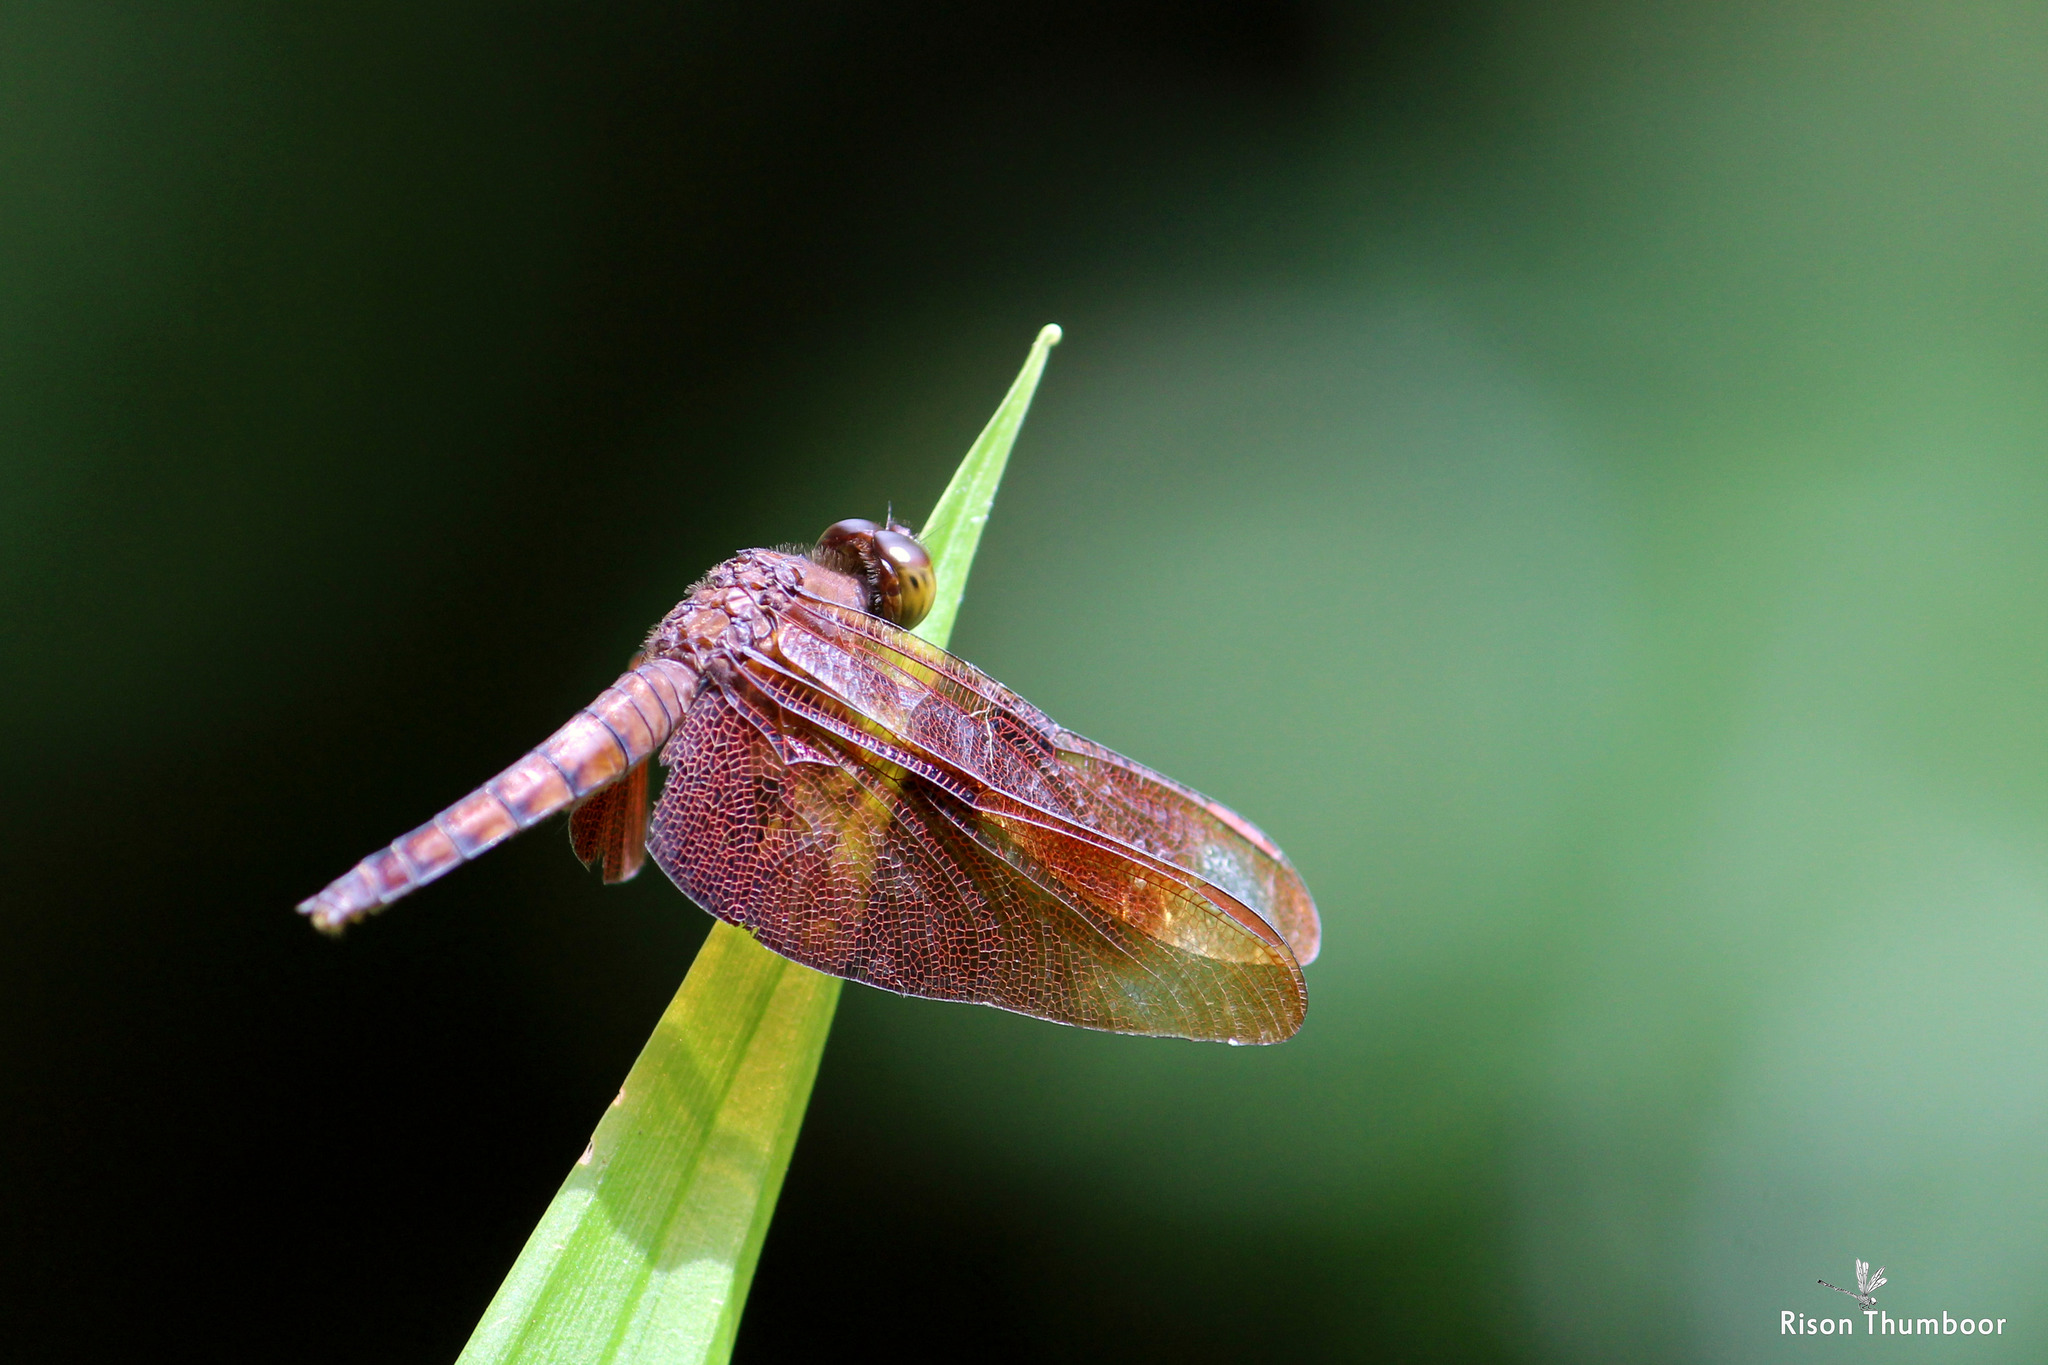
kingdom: Animalia
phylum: Arthropoda
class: Insecta
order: Odonata
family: Libellulidae
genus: Neurothemis
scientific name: Neurothemis fulvia
